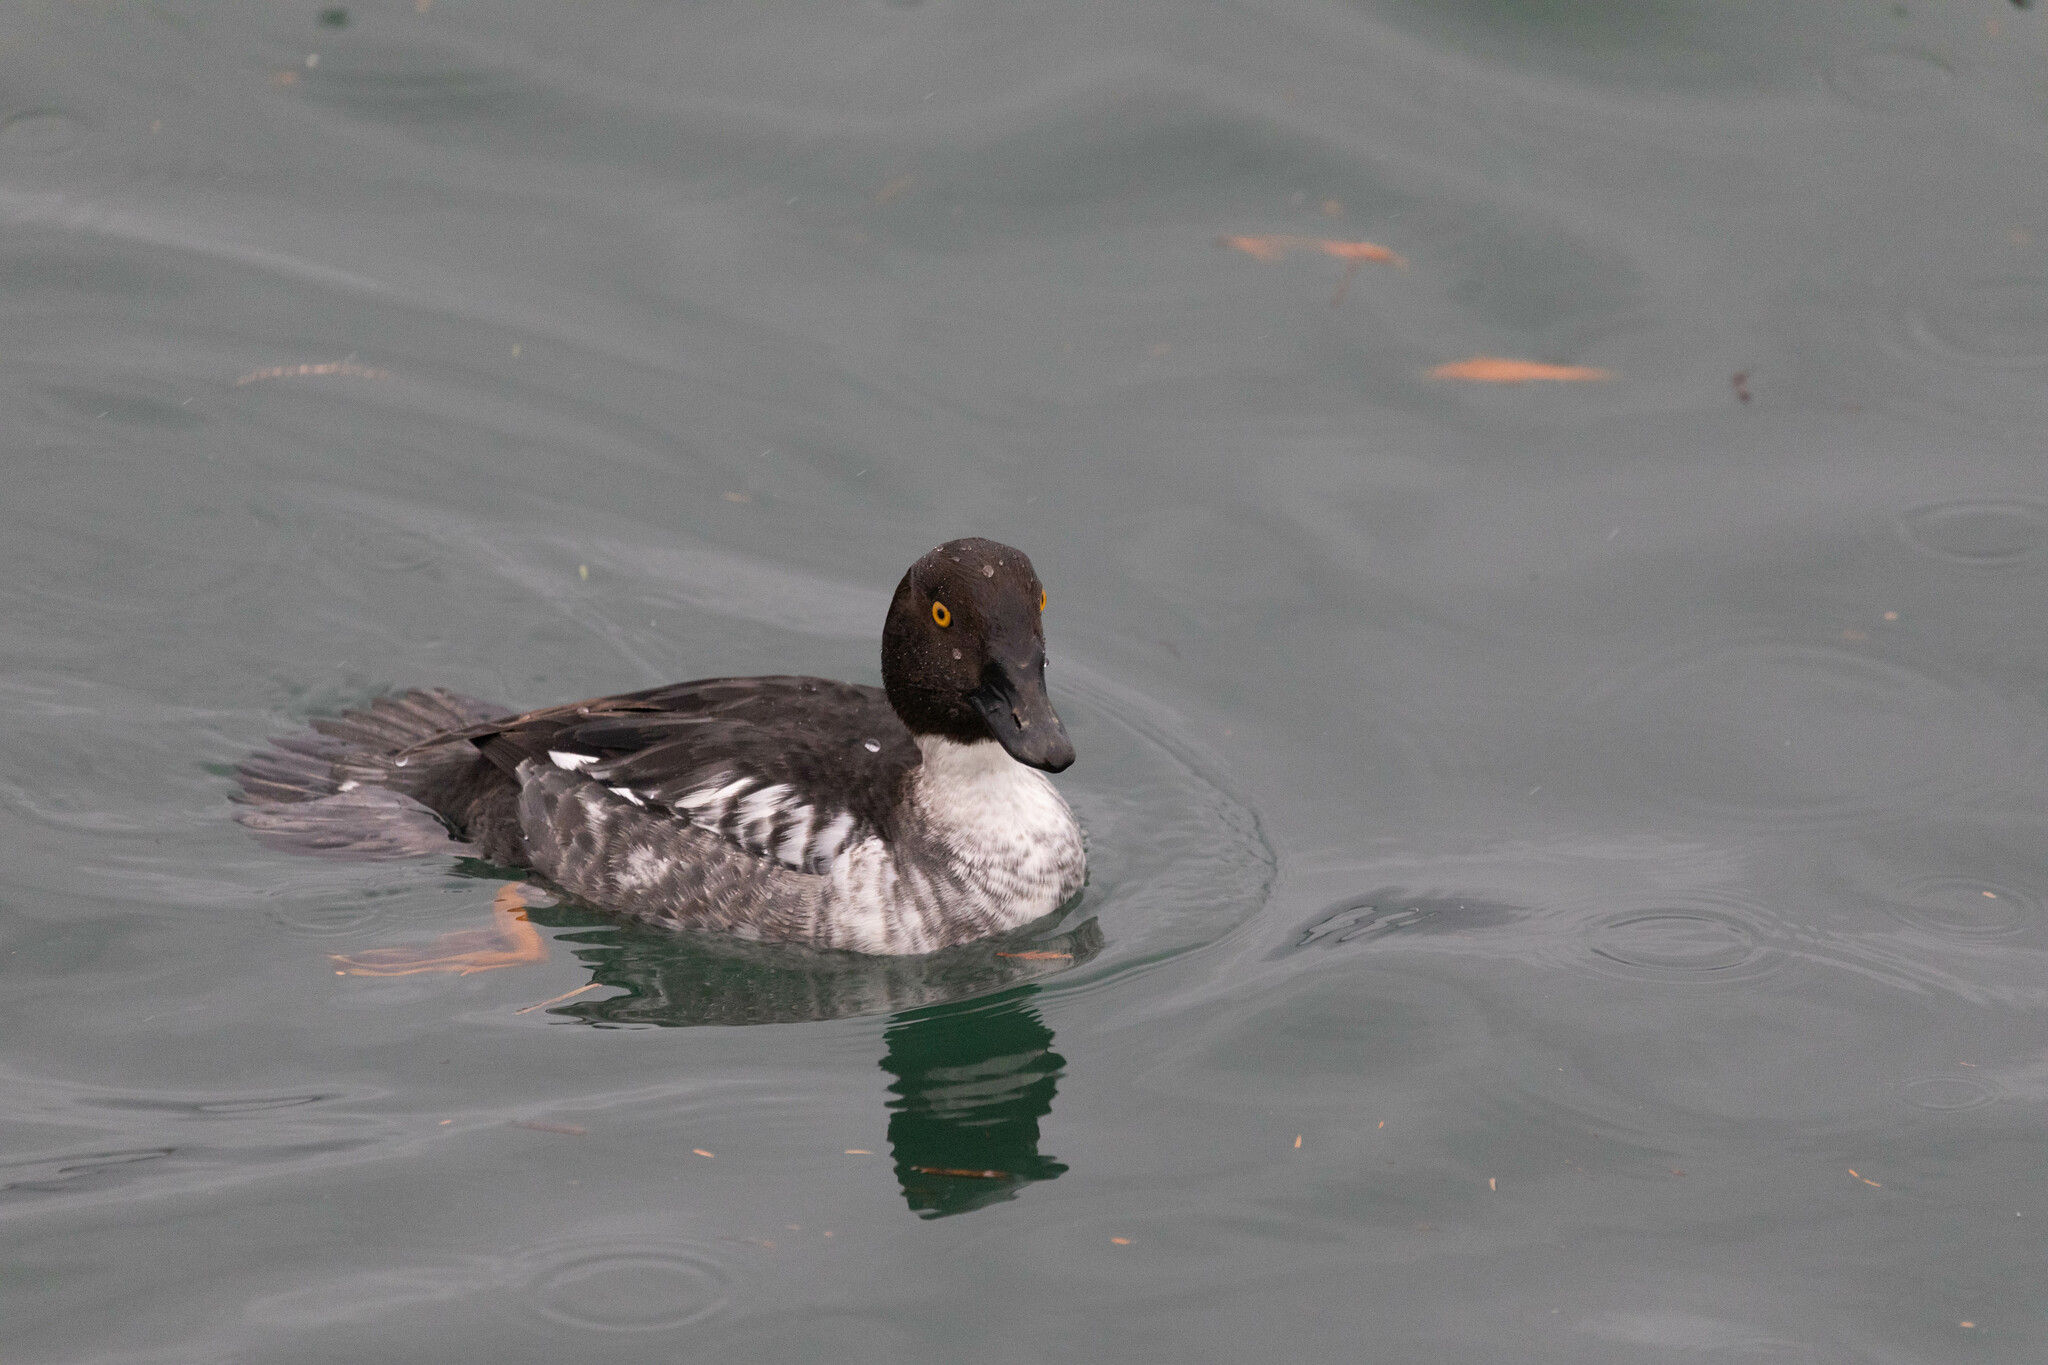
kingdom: Animalia
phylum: Chordata
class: Aves
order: Anseriformes
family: Anatidae
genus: Bucephala
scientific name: Bucephala clangula
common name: Common goldeneye
